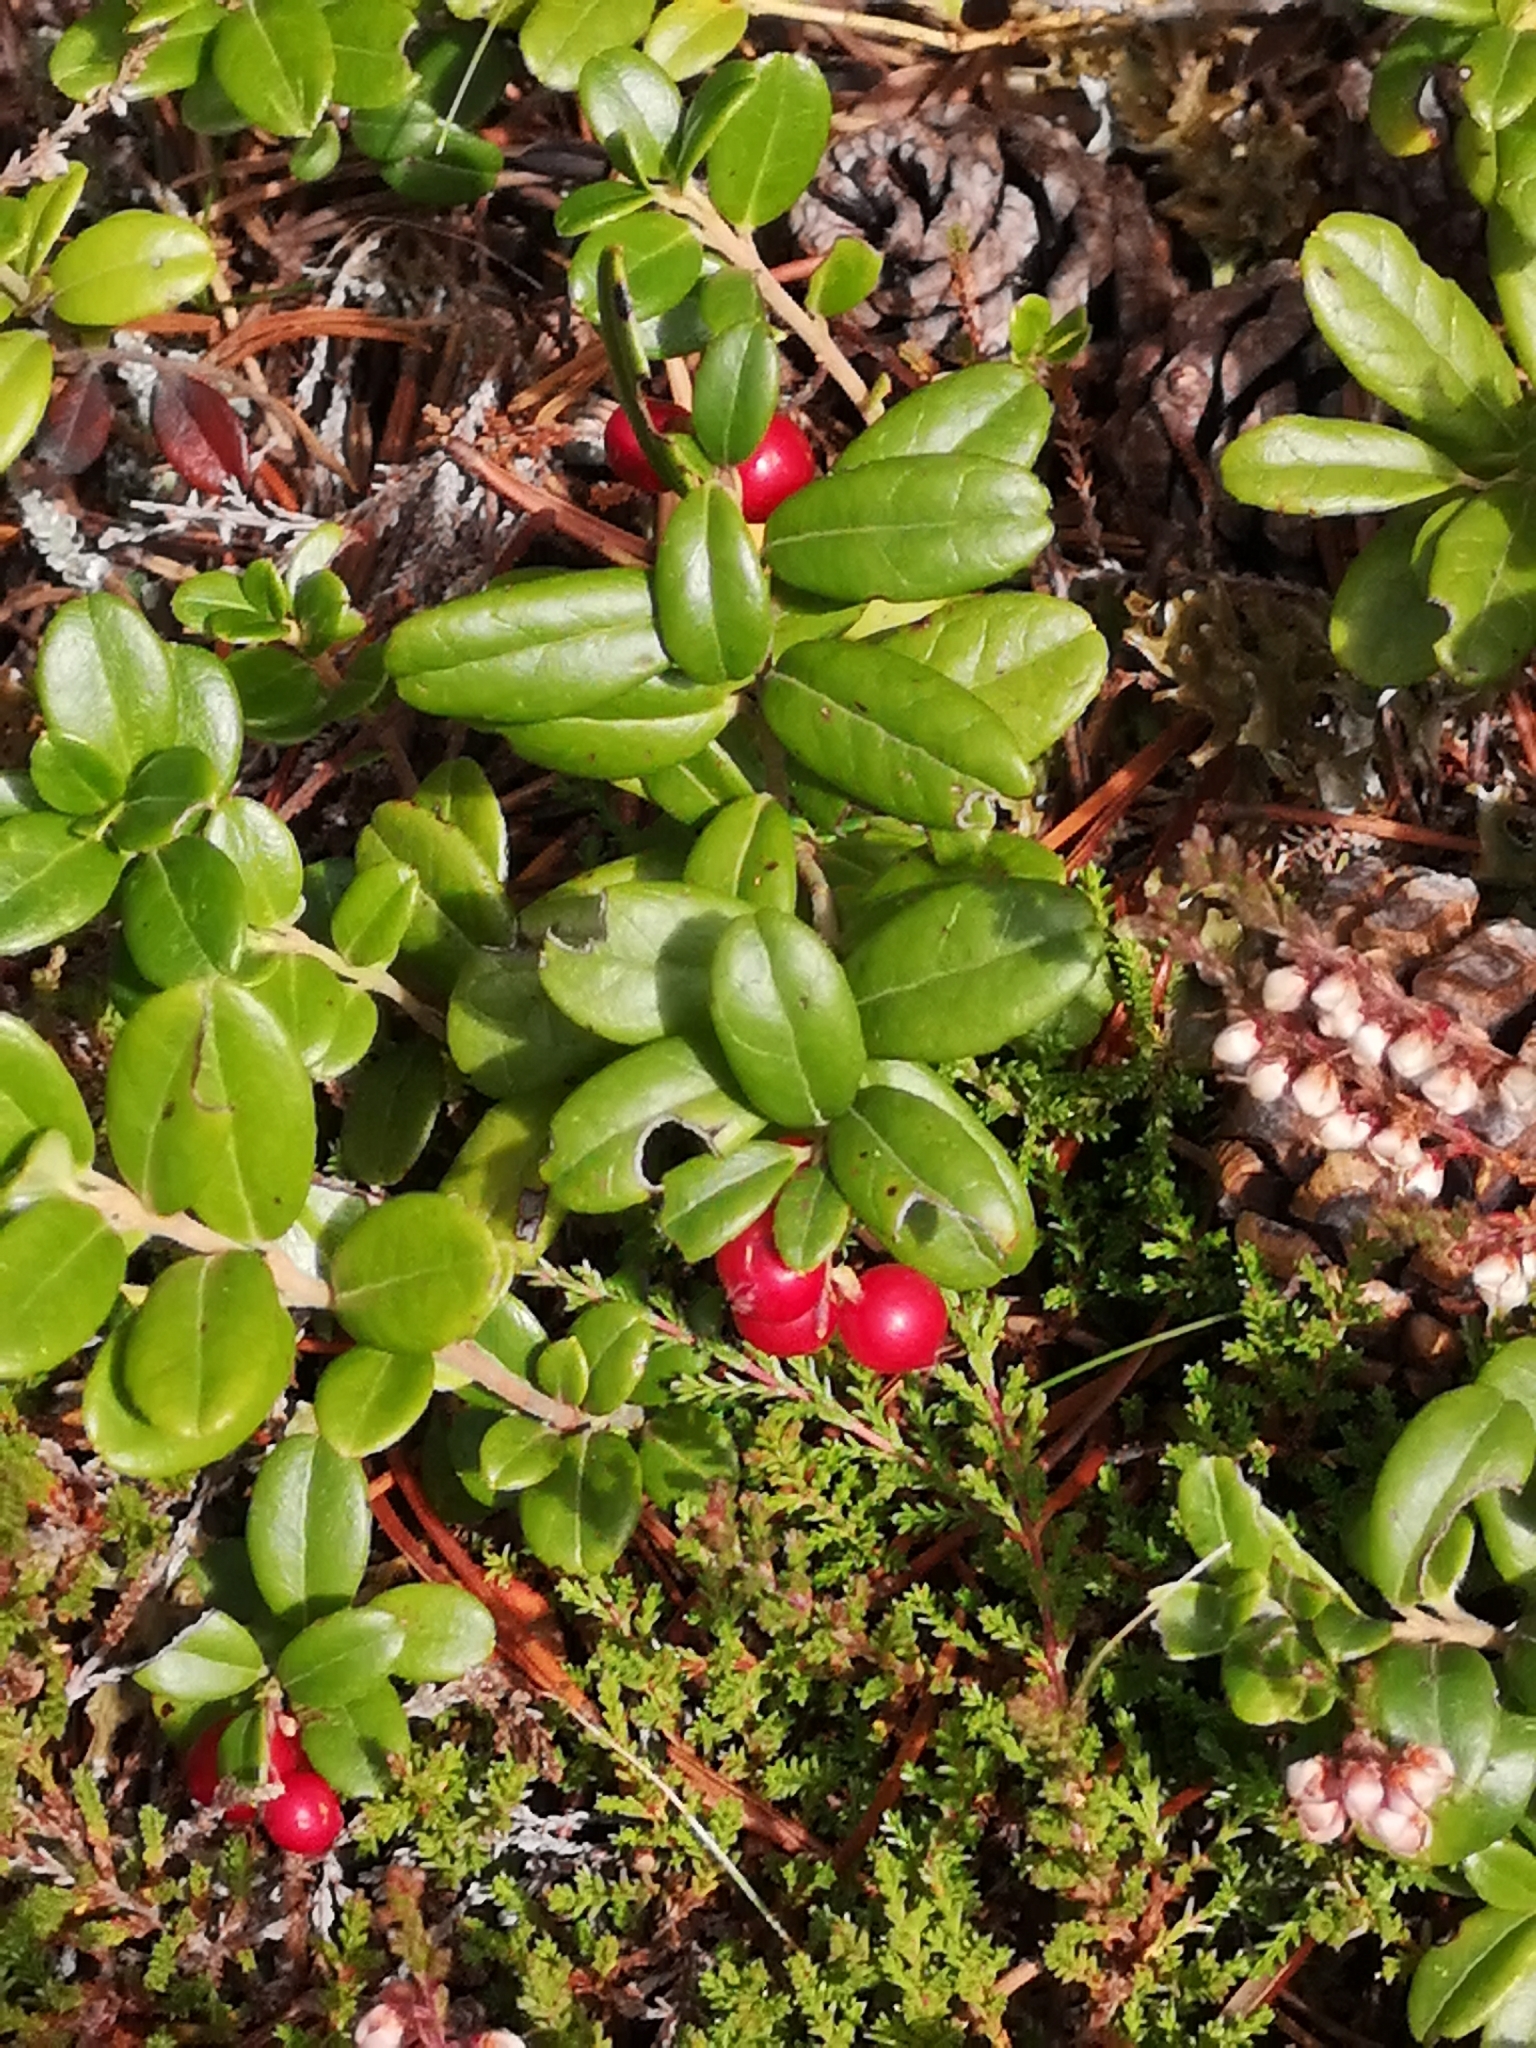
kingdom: Plantae
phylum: Tracheophyta
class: Magnoliopsida
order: Ericales
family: Ericaceae
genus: Vaccinium
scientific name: Vaccinium vitis-idaea
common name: Cowberry
